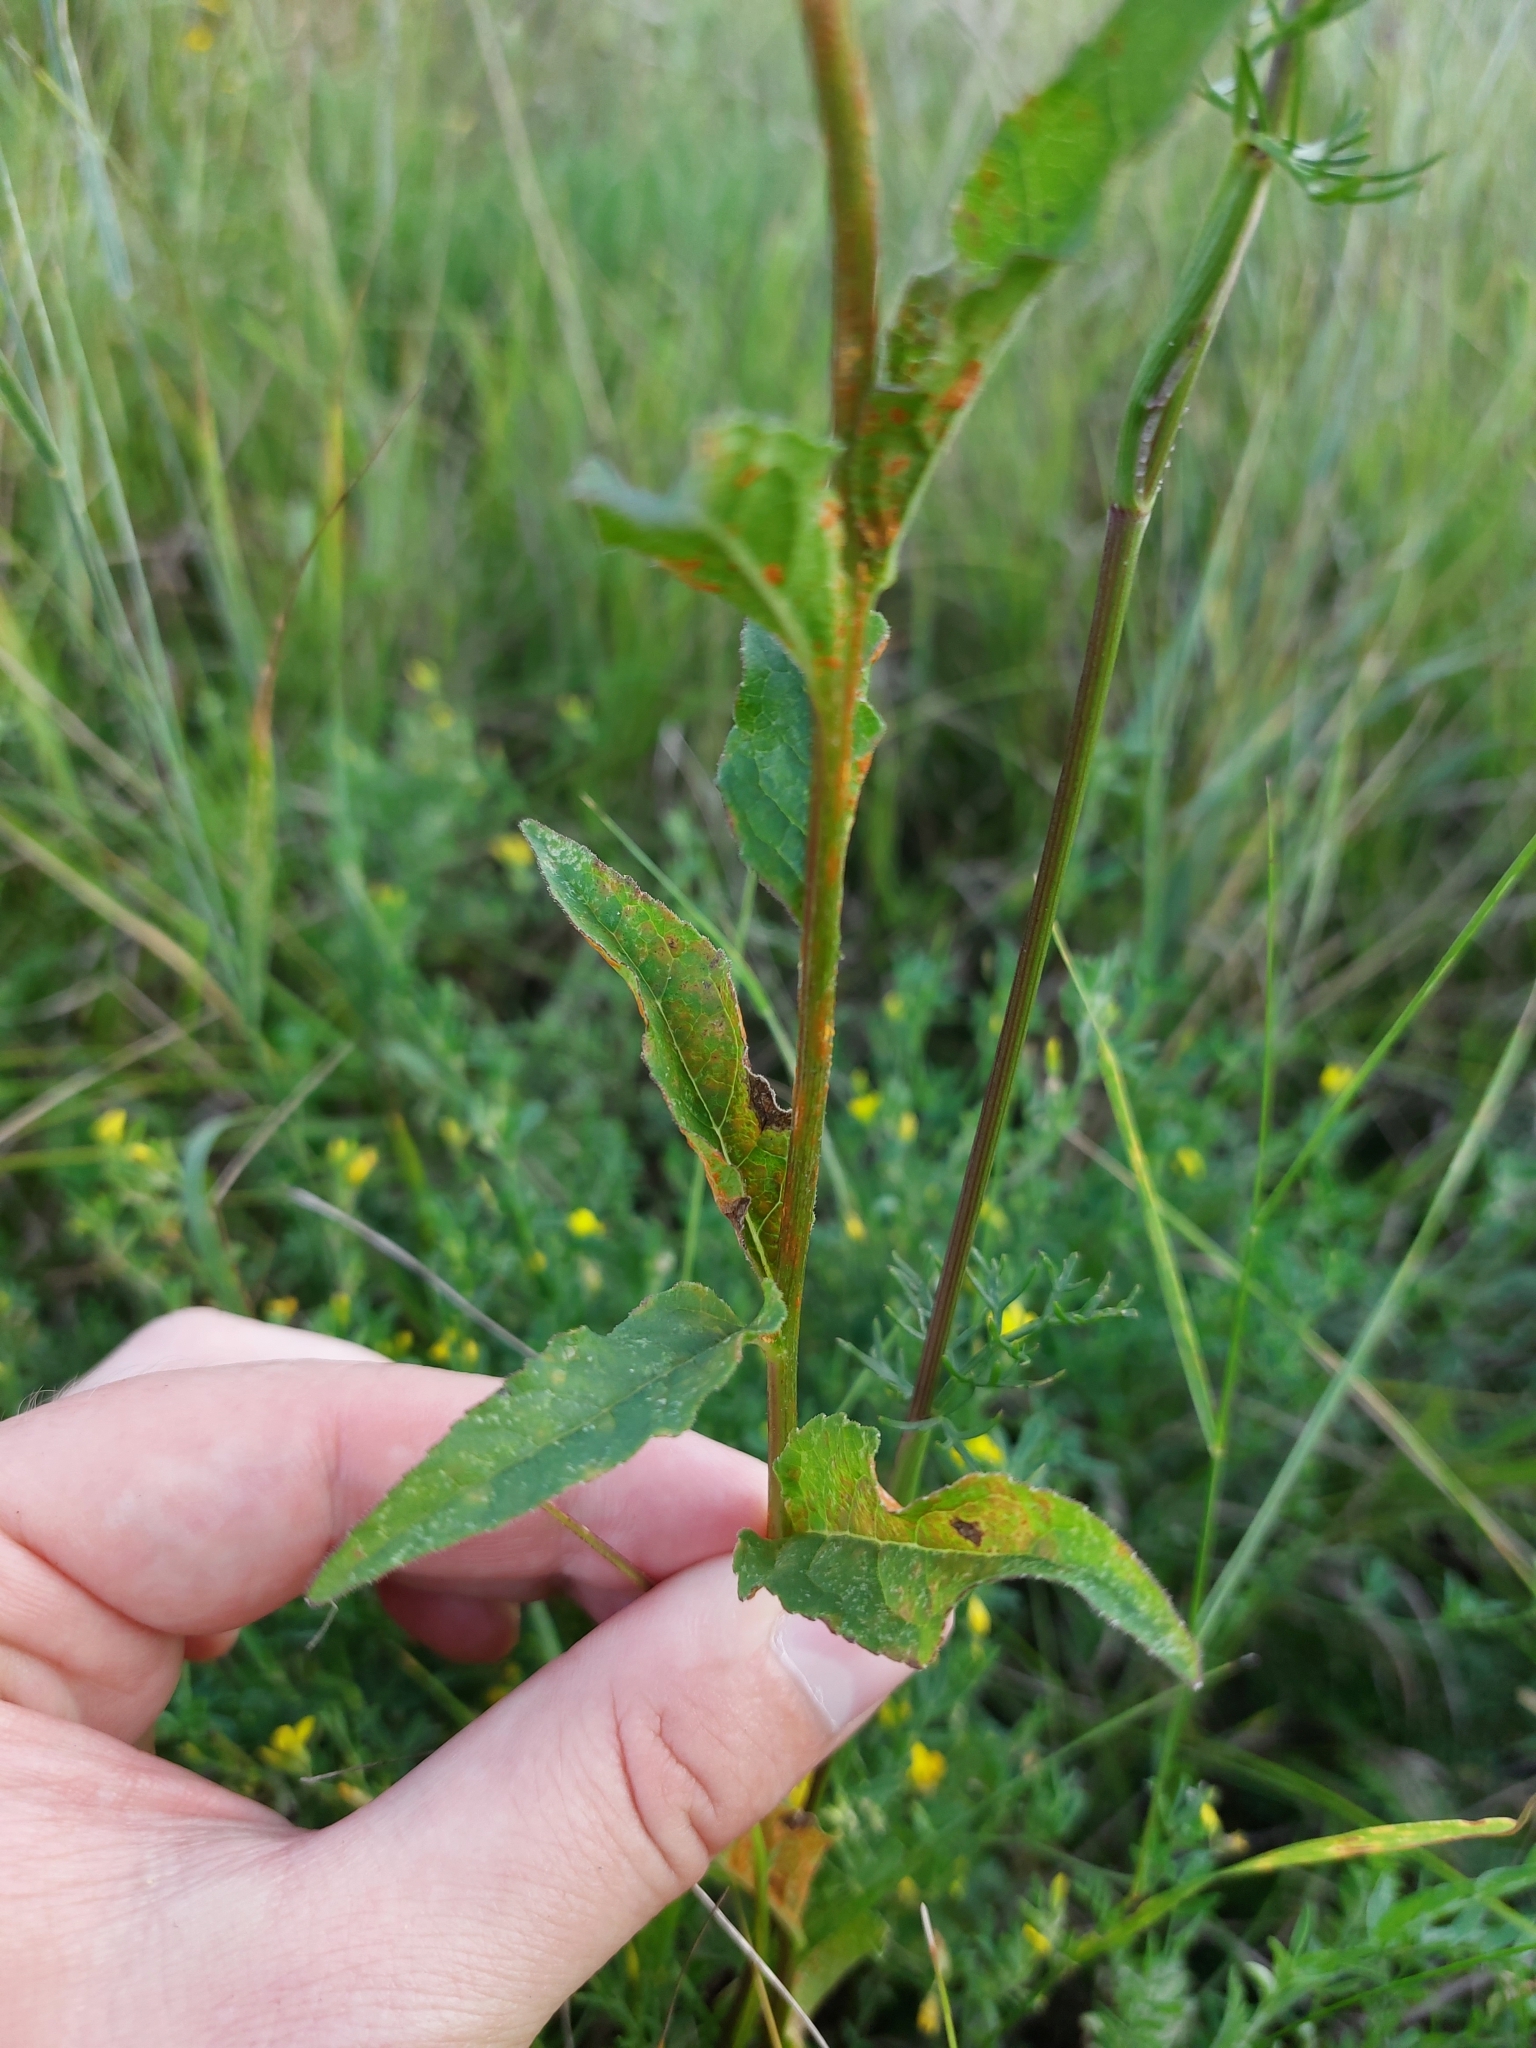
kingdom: Plantae
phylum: Tracheophyta
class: Magnoliopsida
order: Asterales
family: Campanulaceae
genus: Campanula
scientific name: Campanula bononiensis
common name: Pale bellflower
